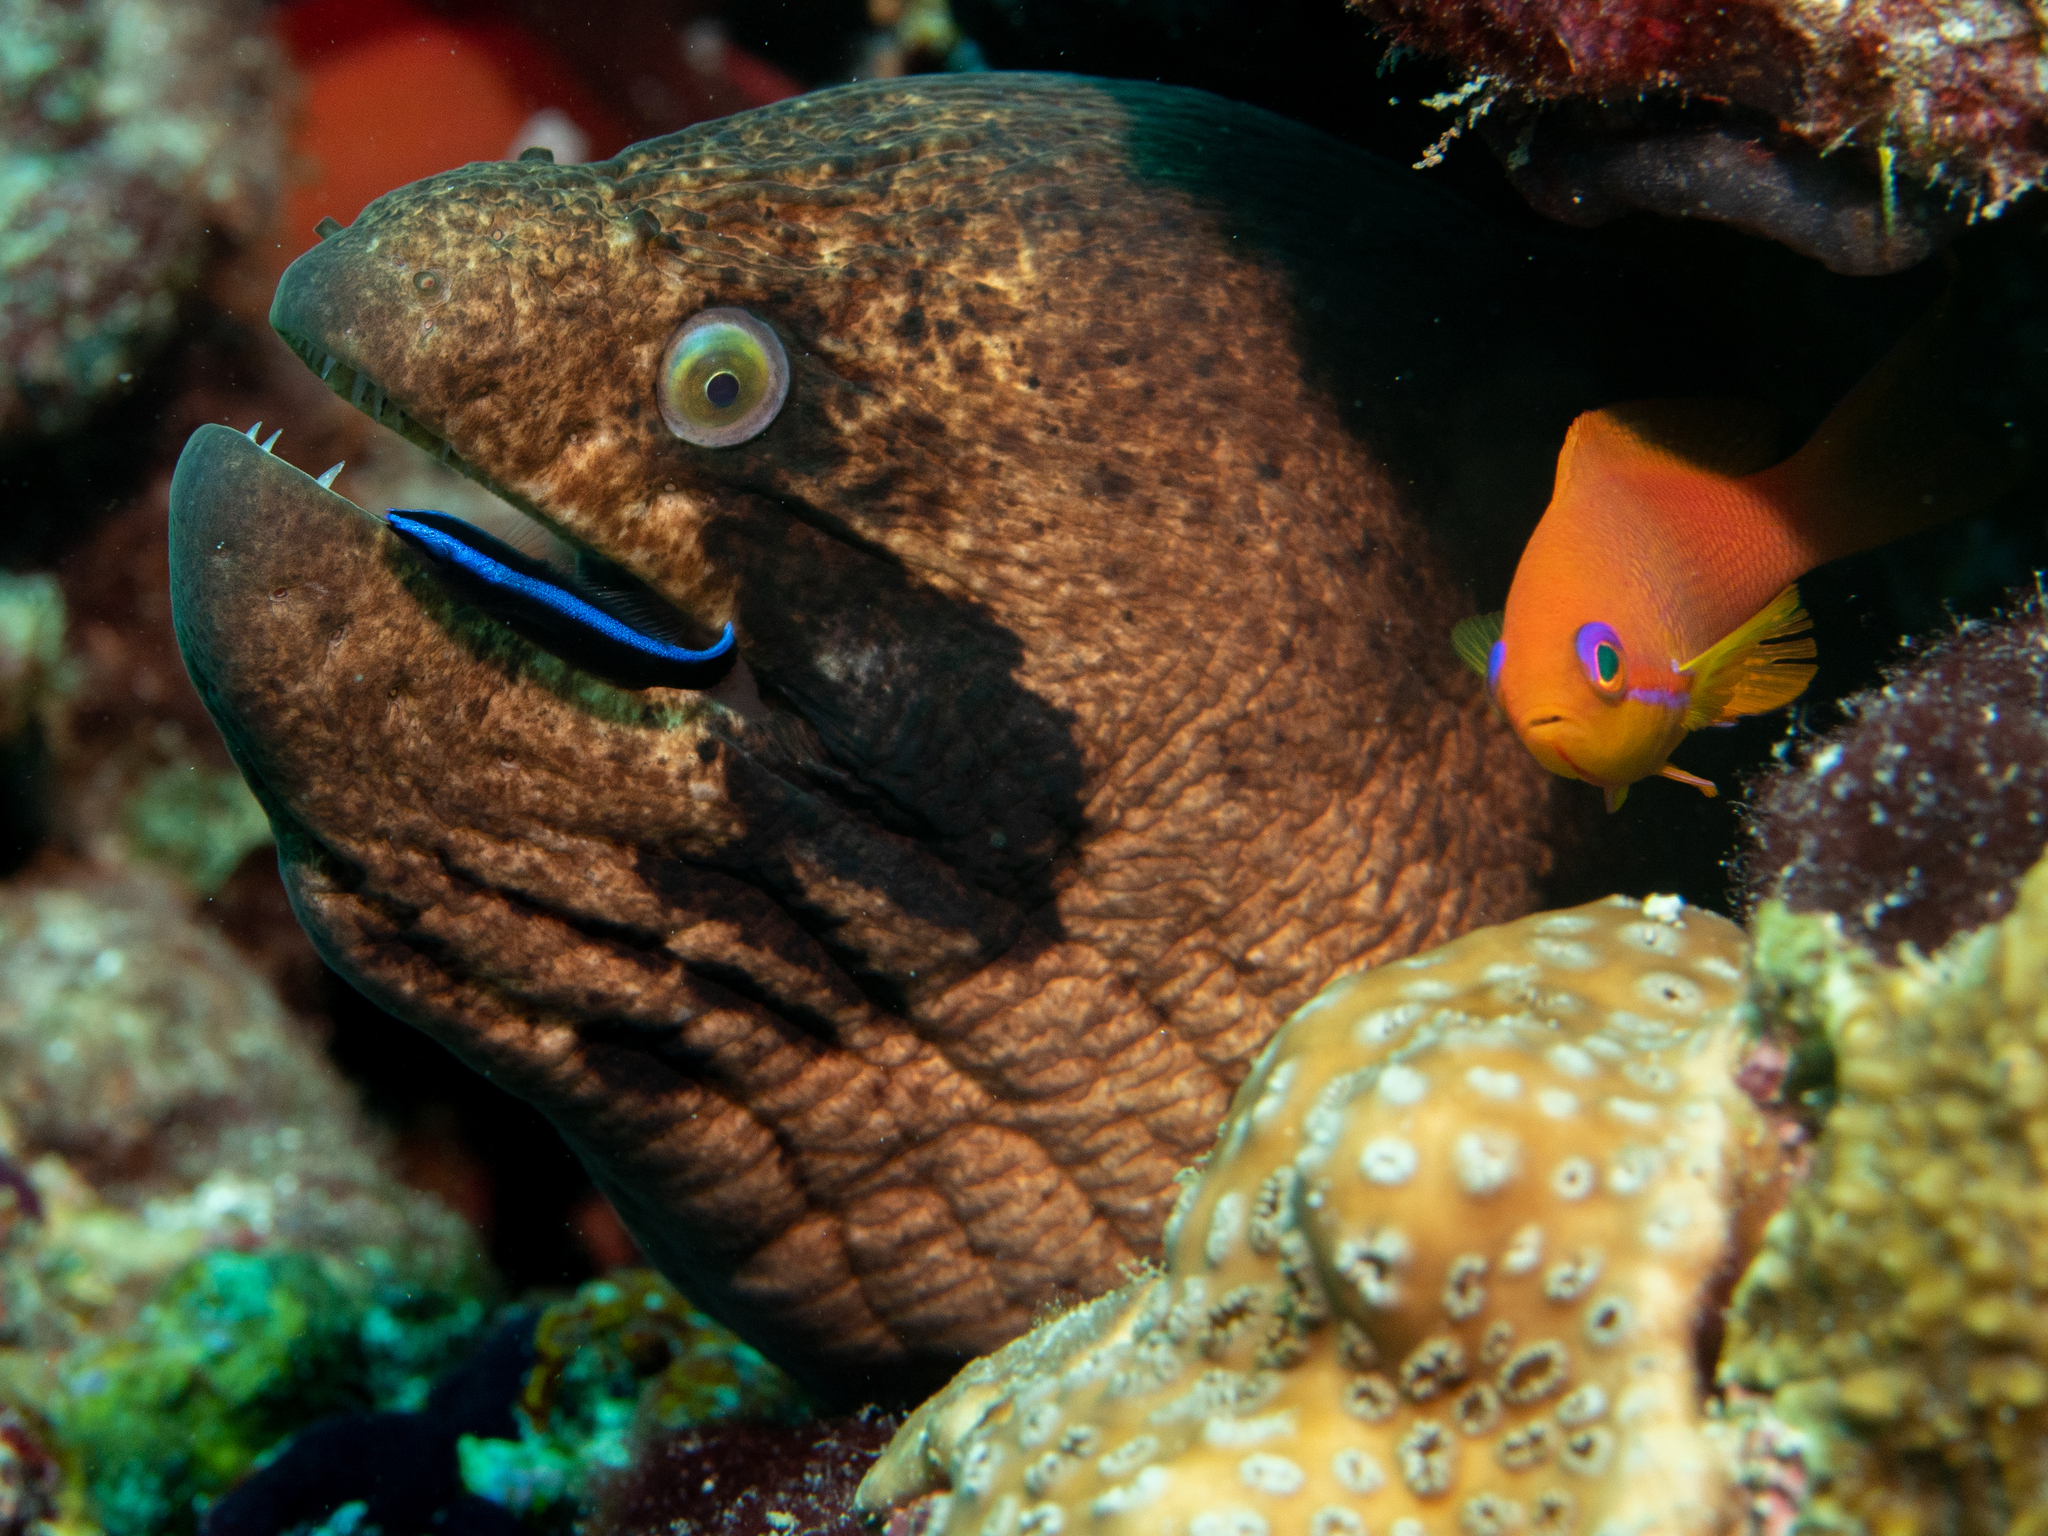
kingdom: Animalia
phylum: Chordata
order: Anguilliformes
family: Muraenidae
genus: Gymnothorax
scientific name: Gymnothorax breedeni
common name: Blackcheek moray
